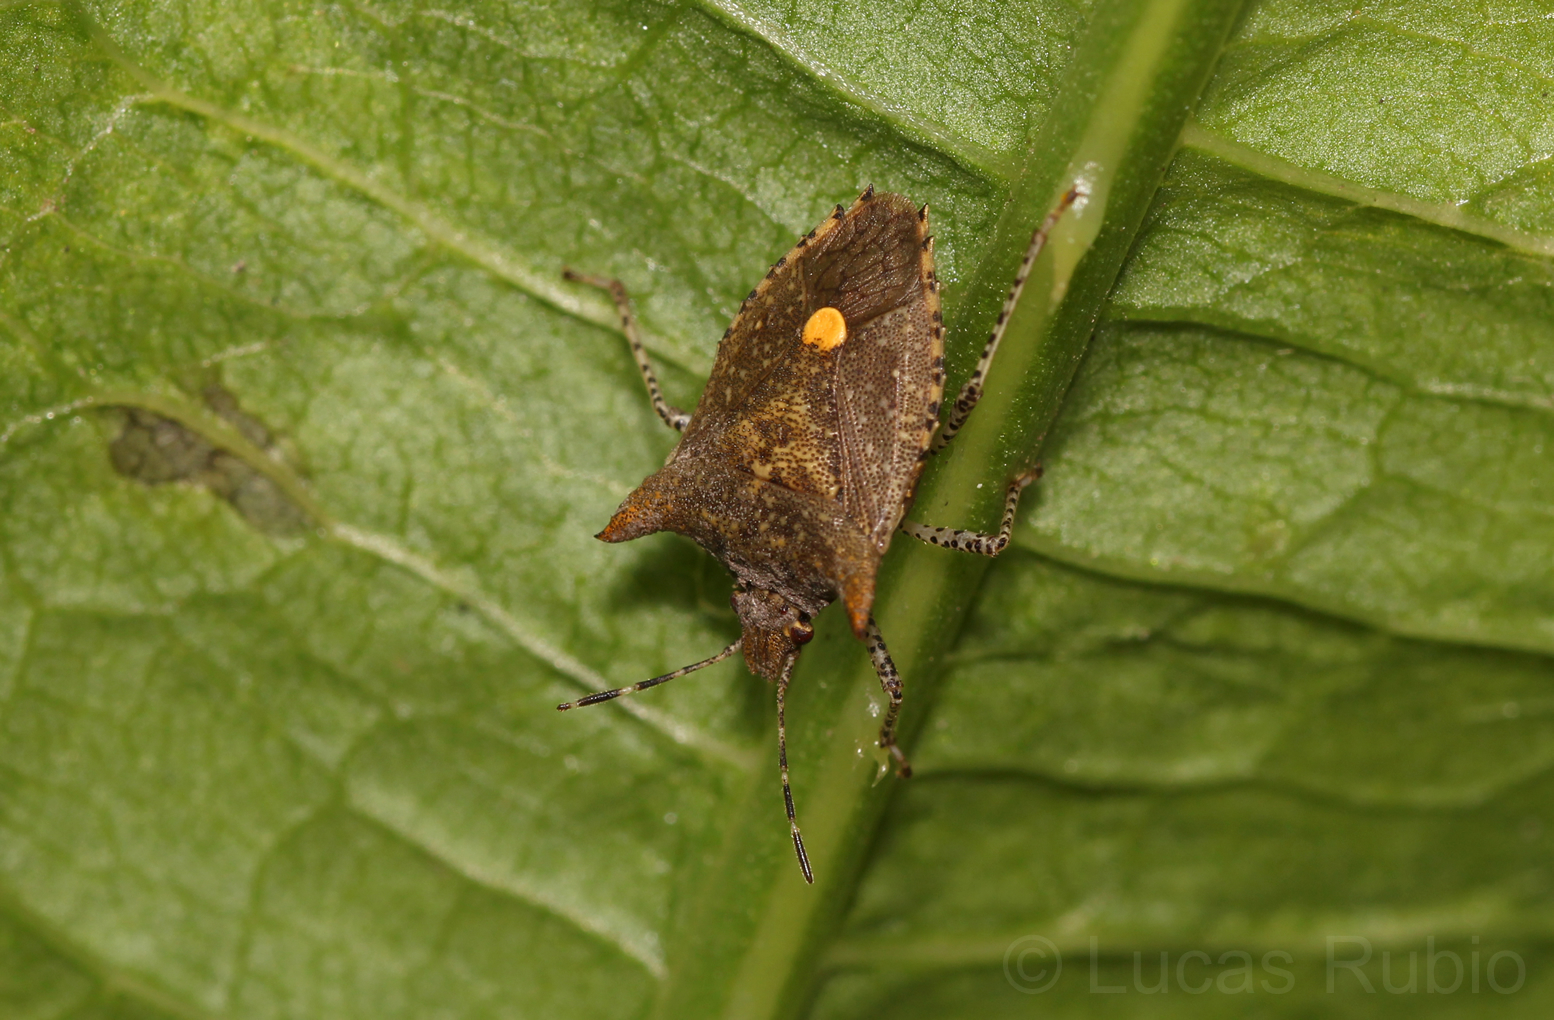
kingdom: Animalia
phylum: Arthropoda
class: Insecta
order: Hemiptera
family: Pentatomidae
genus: Euschistus
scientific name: Euschistus picticornis
